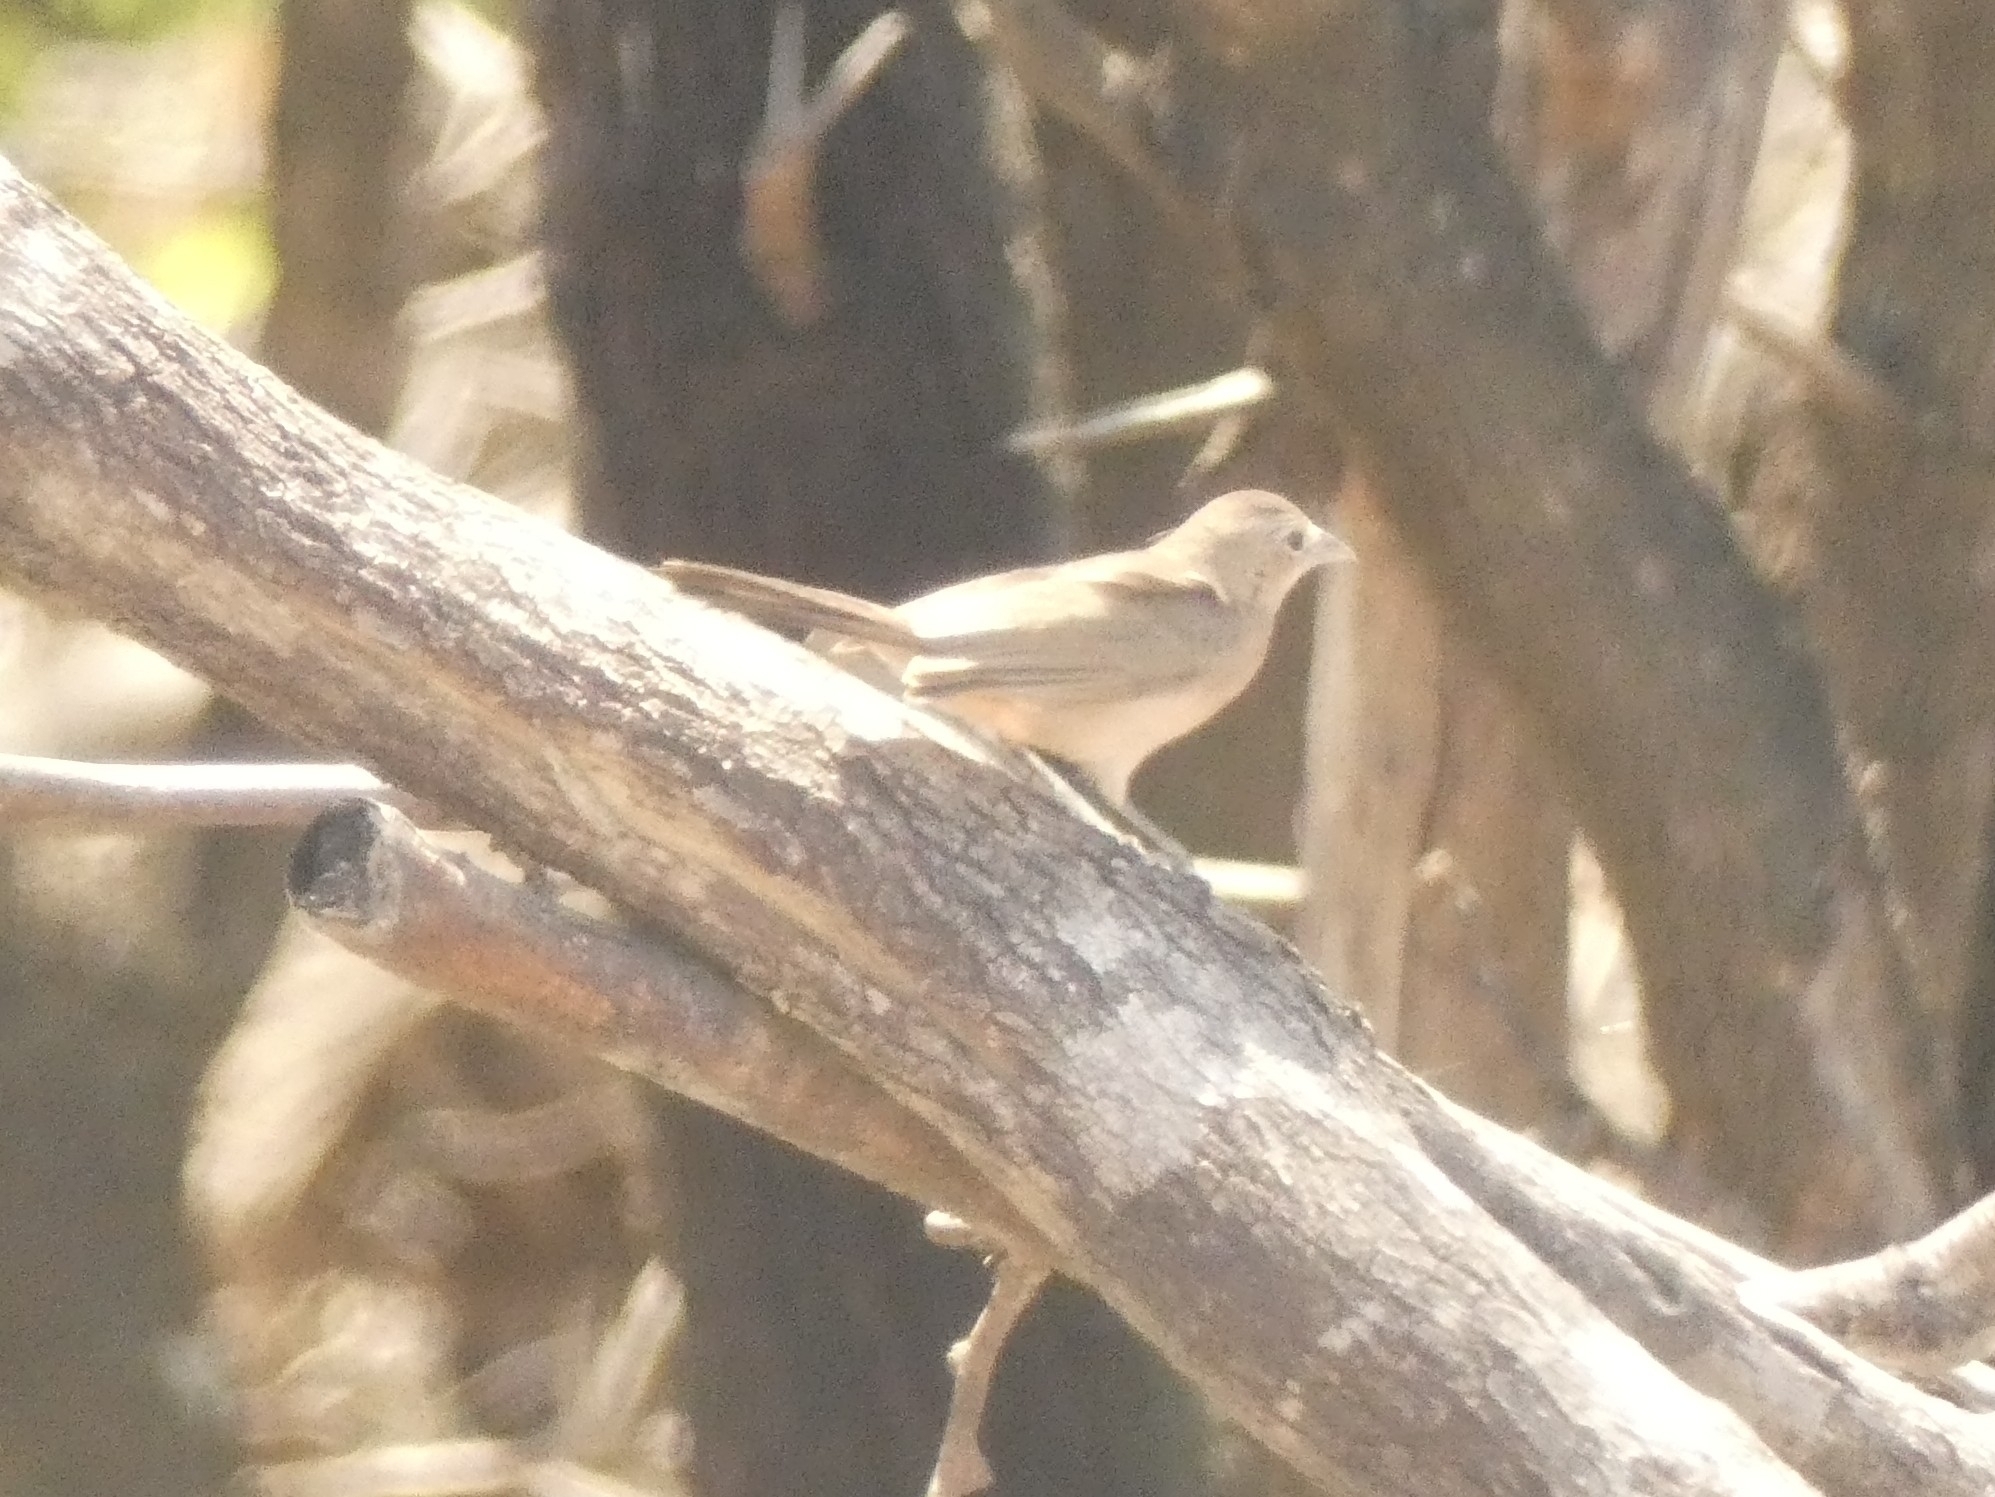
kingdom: Animalia
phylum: Chordata
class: Aves
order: Passeriformes
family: Thraupidae
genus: Coryphospingus
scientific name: Coryphospingus cucullatus
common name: Red pileated finch
